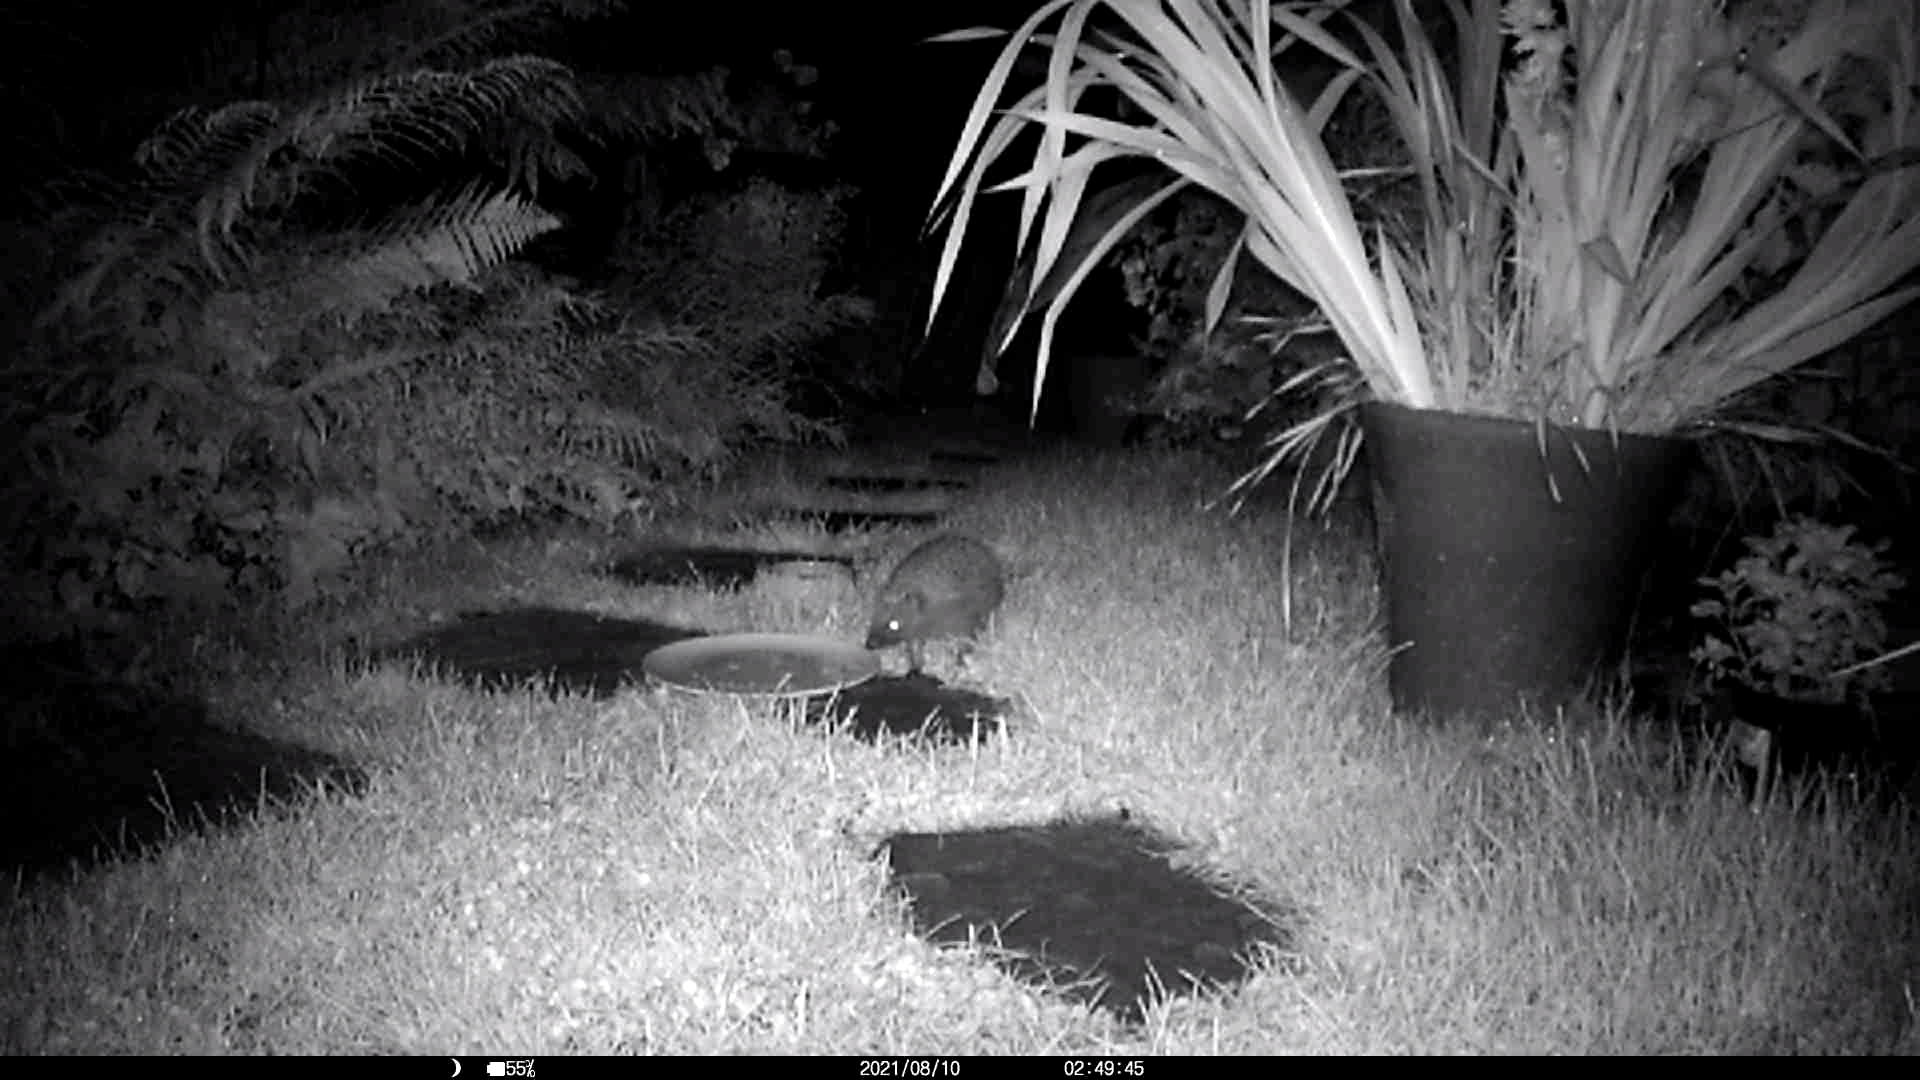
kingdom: Animalia
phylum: Chordata
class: Mammalia
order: Erinaceomorpha
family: Erinaceidae
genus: Erinaceus
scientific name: Erinaceus europaeus
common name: West european hedgehog
